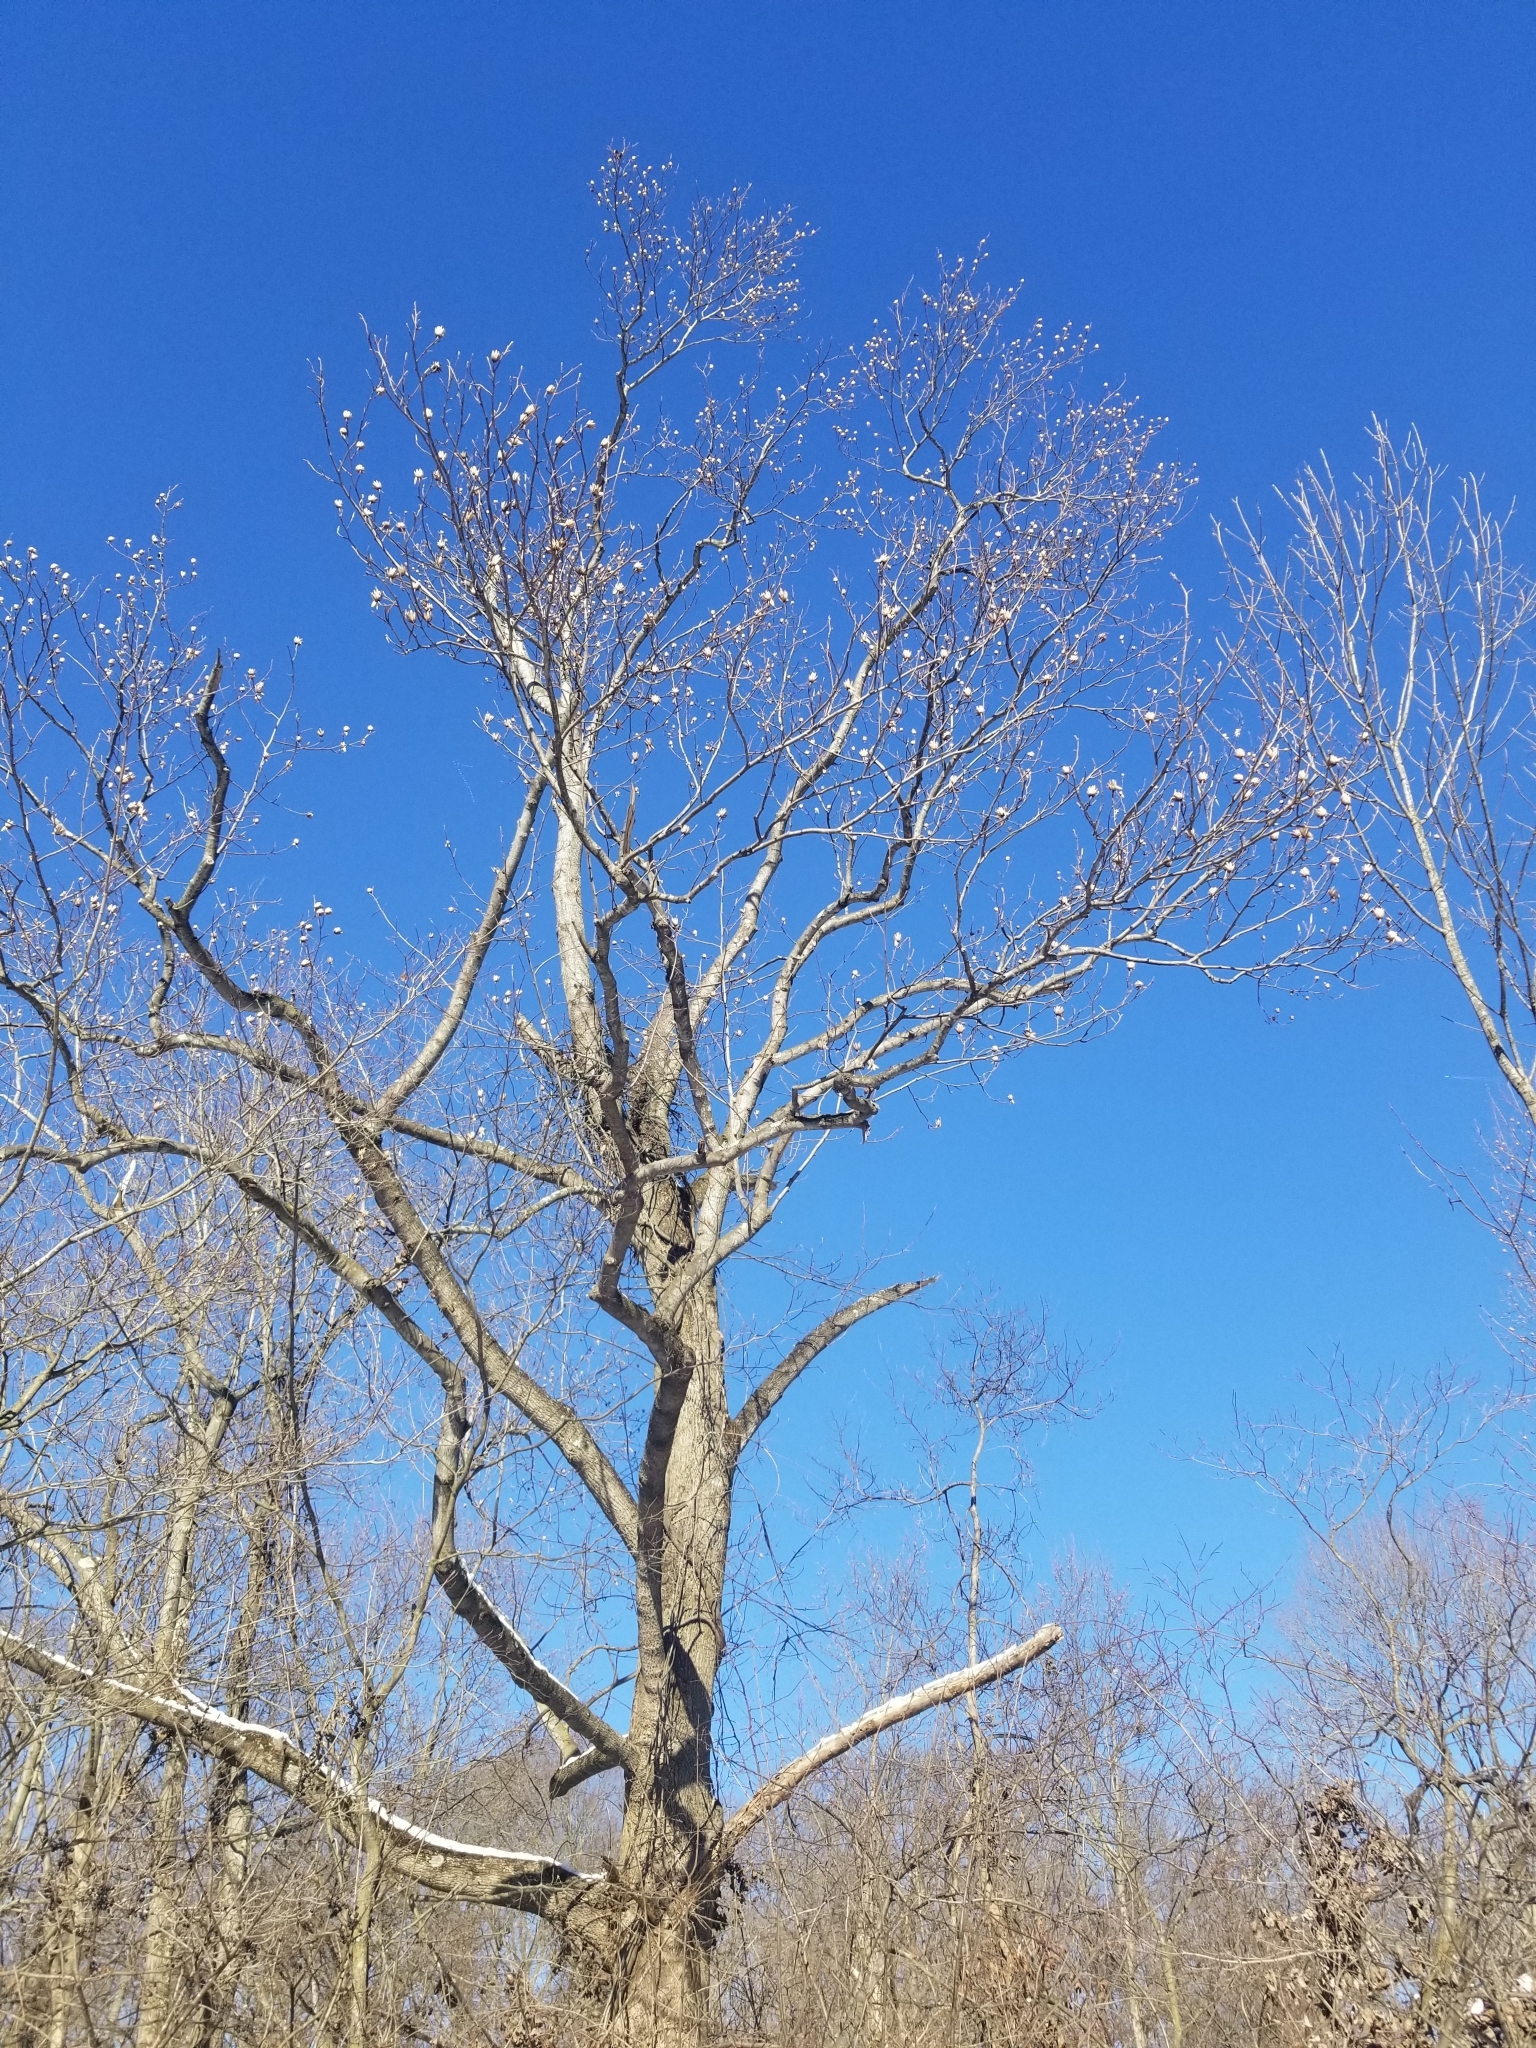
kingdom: Plantae
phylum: Tracheophyta
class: Magnoliopsida
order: Magnoliales
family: Magnoliaceae
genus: Liriodendron
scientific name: Liriodendron tulipifera
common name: Tulip tree
